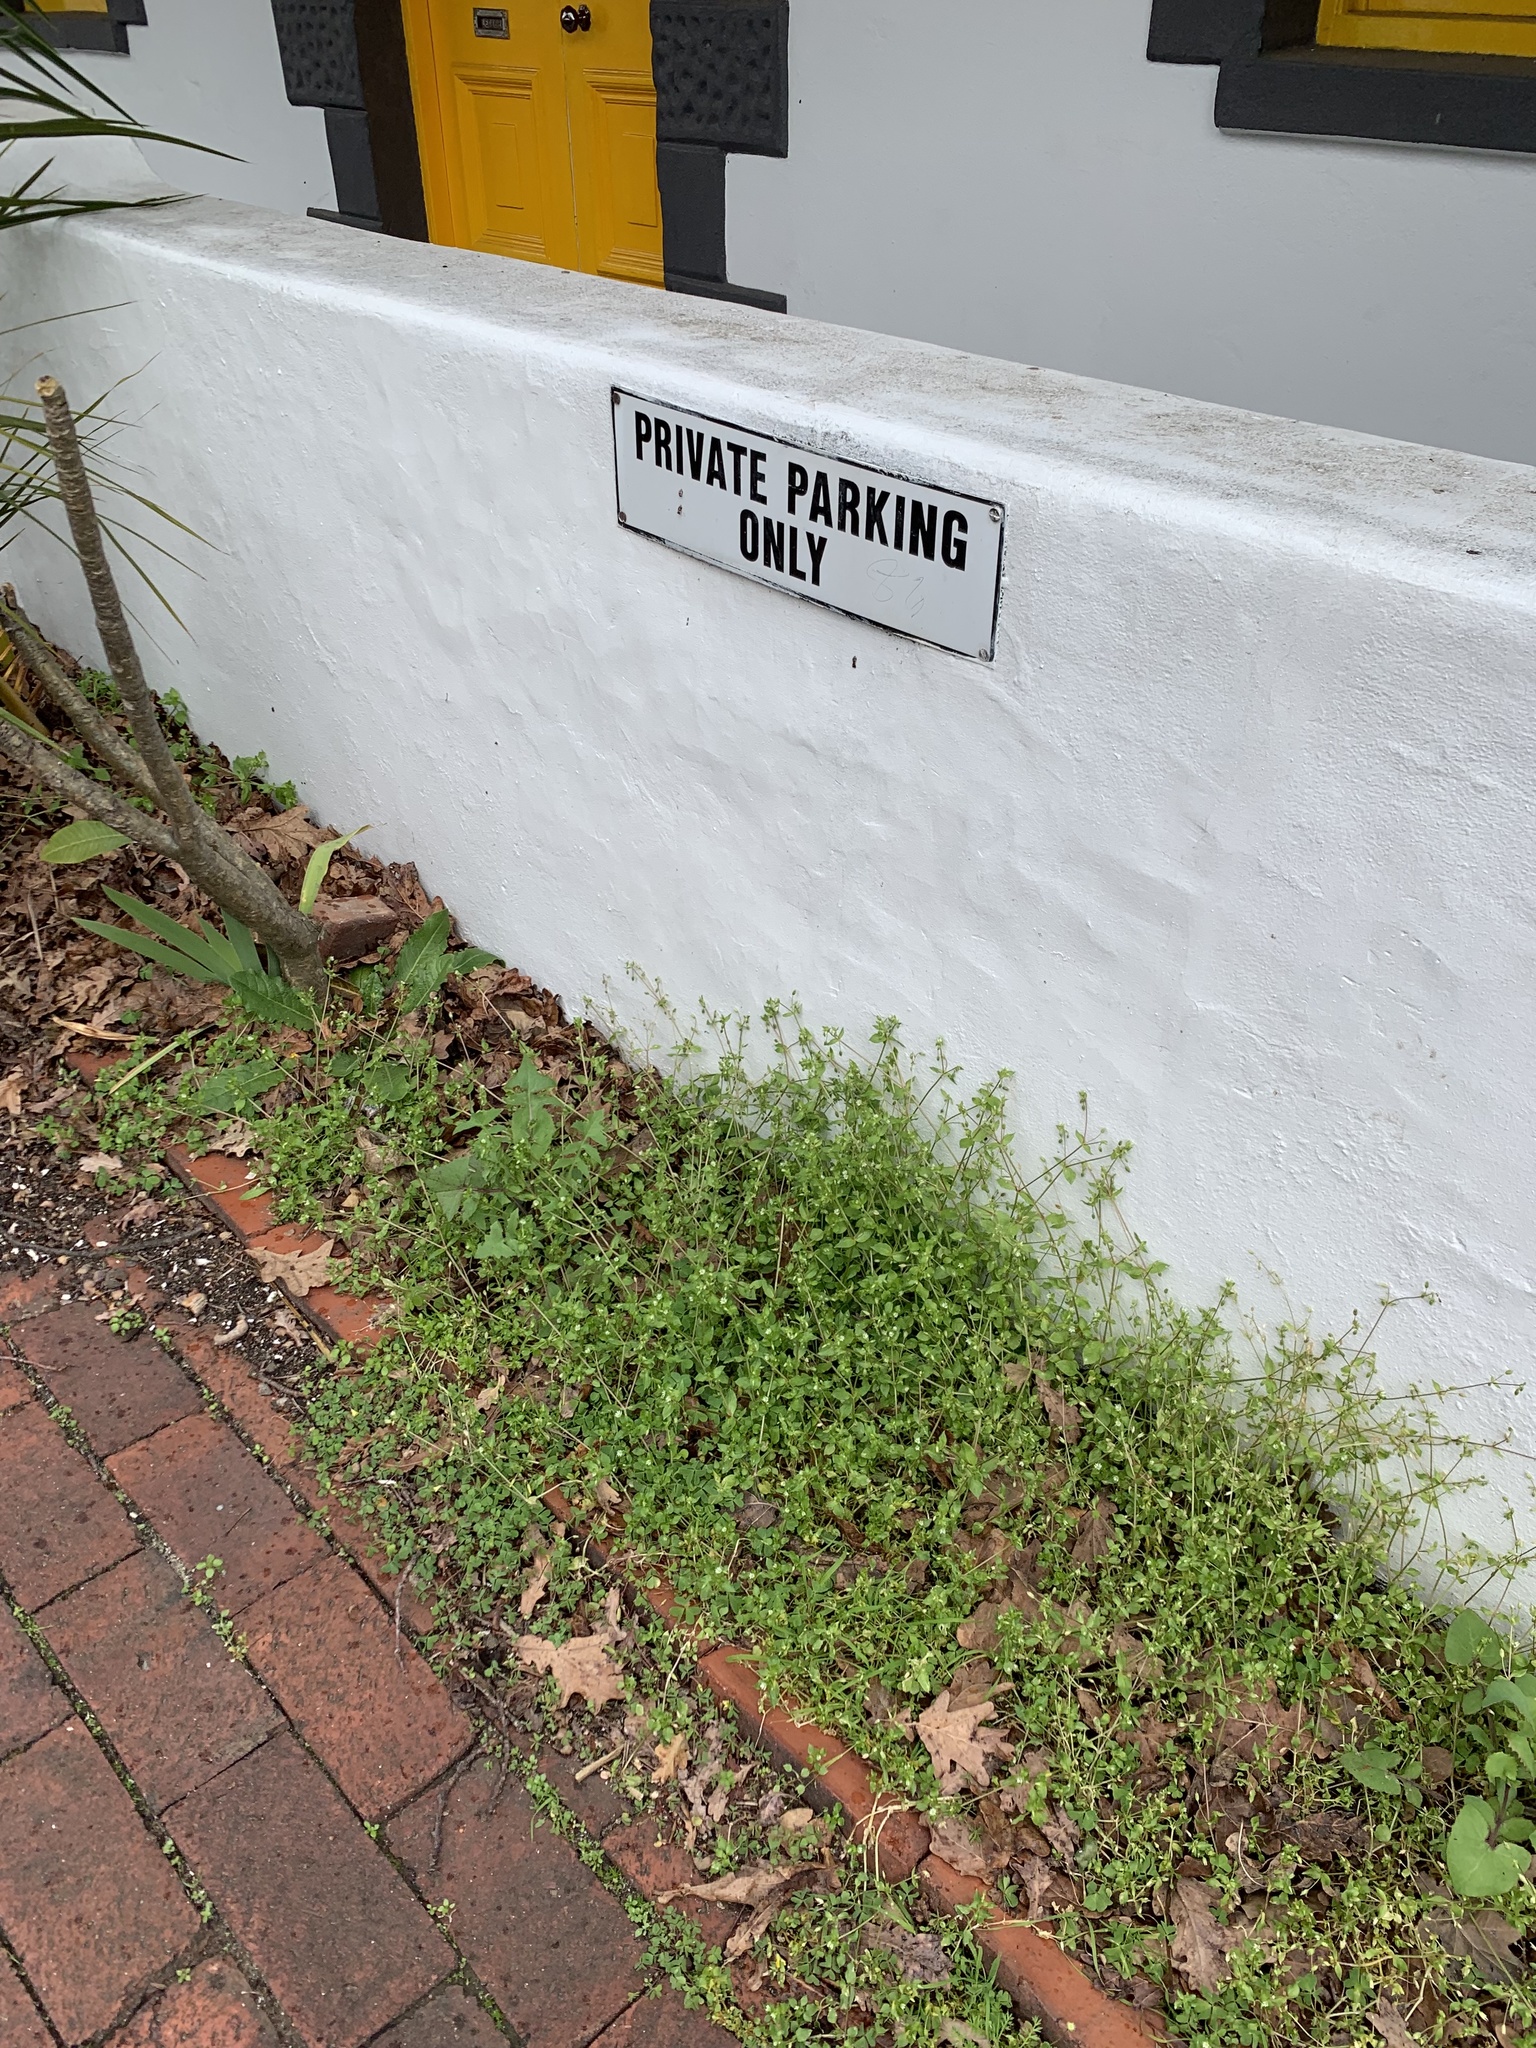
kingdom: Plantae
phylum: Tracheophyta
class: Magnoliopsida
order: Caryophyllales
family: Caryophyllaceae
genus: Stellaria
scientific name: Stellaria media
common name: Common chickweed
